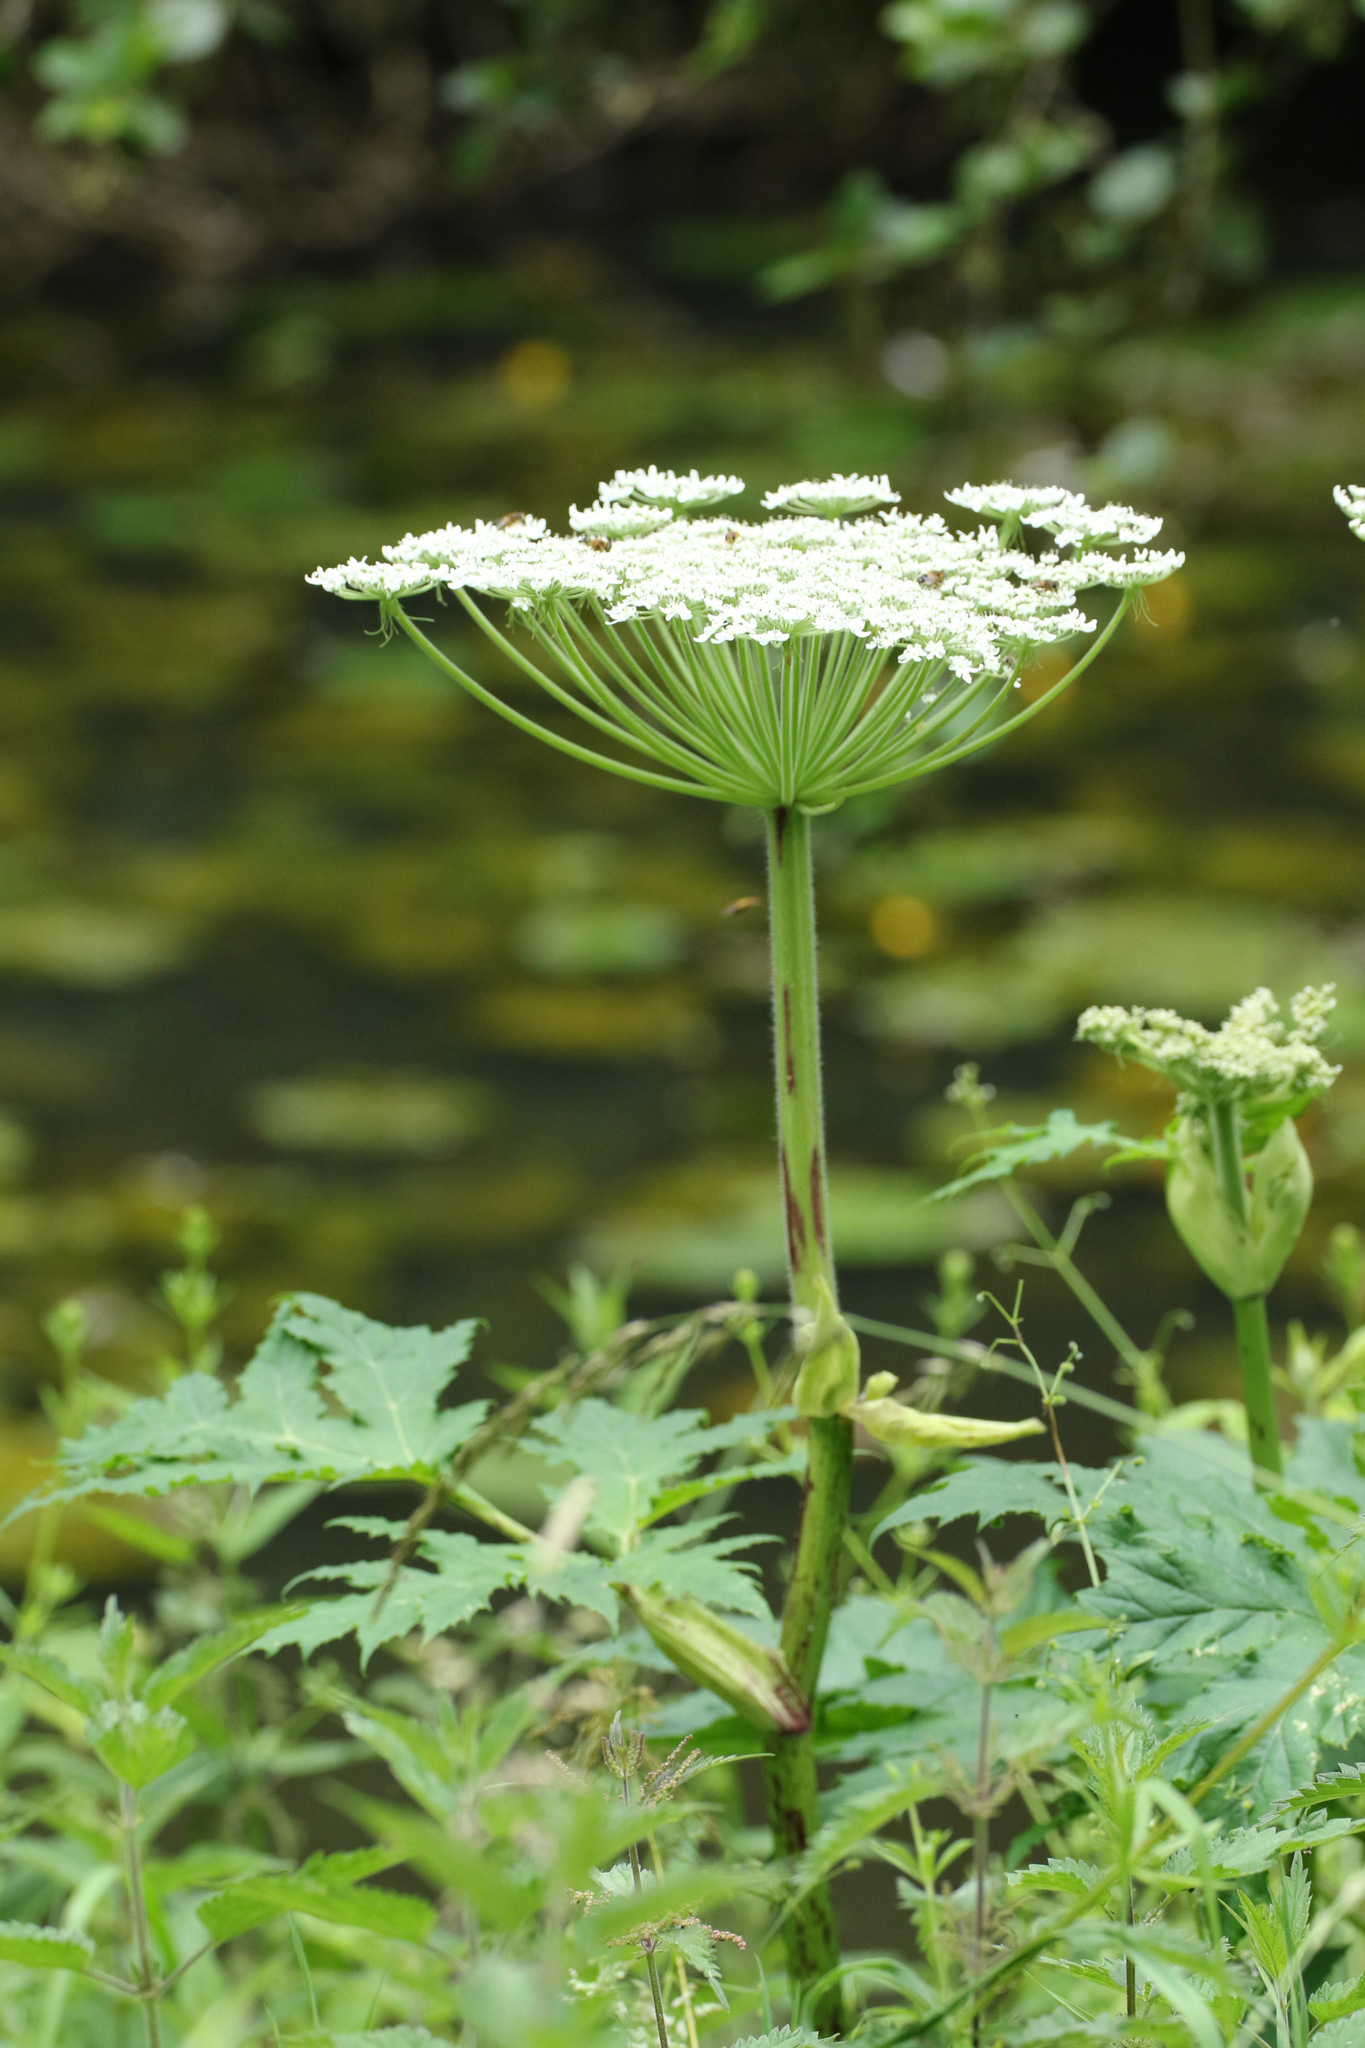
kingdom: Plantae
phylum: Tracheophyta
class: Magnoliopsida
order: Apiales
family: Apiaceae
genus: Heracleum
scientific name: Heracleum mantegazzianum
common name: Giant hogweed
